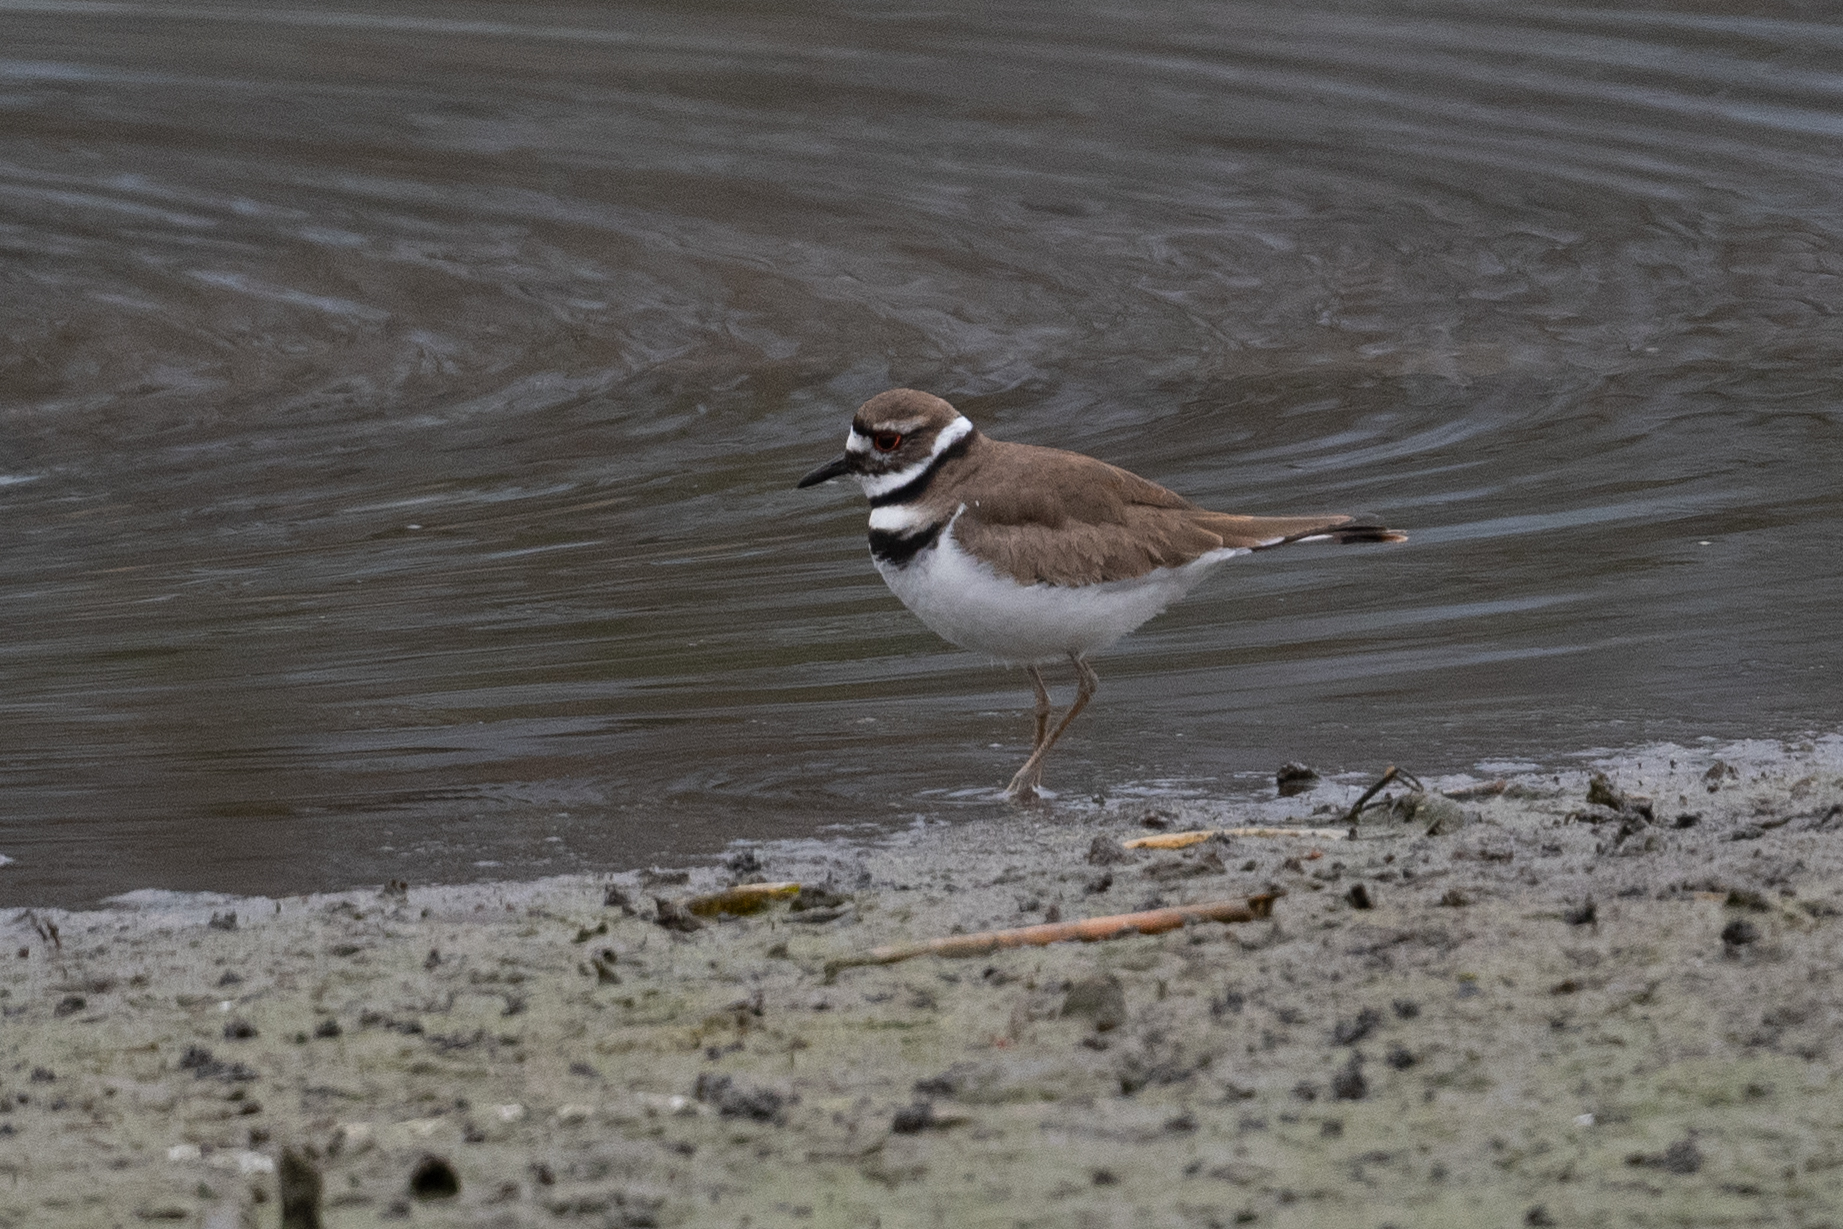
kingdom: Animalia
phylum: Chordata
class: Aves
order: Charadriiformes
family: Charadriidae
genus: Charadrius
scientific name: Charadrius vociferus
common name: Killdeer
